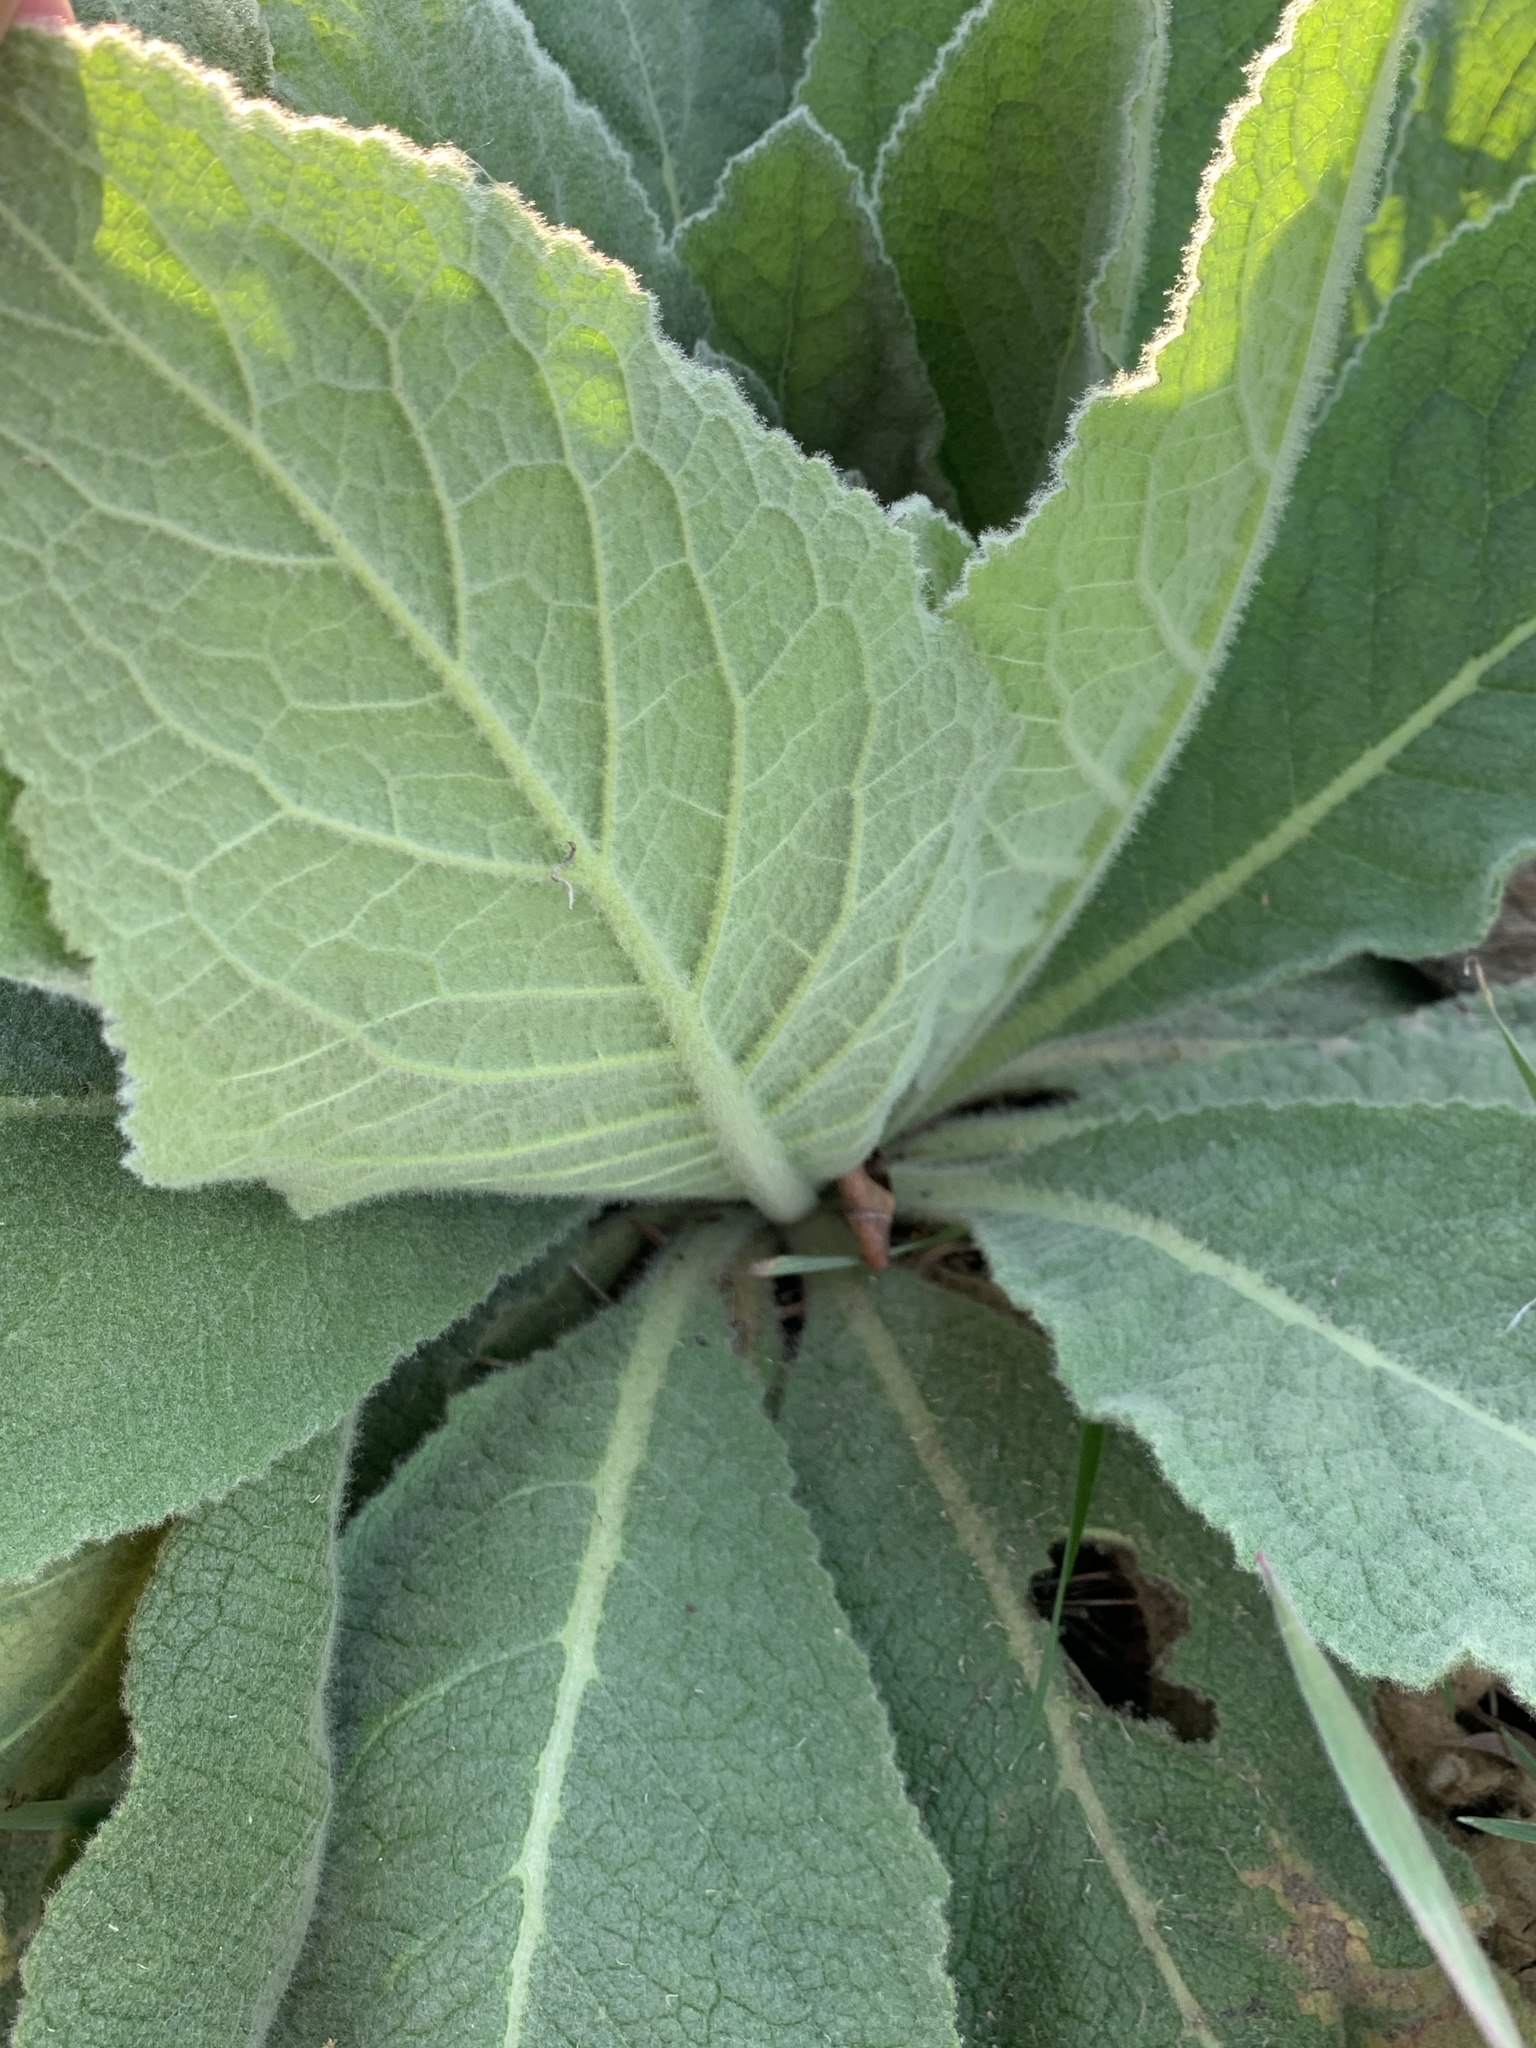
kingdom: Plantae
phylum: Tracheophyta
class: Magnoliopsida
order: Lamiales
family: Scrophulariaceae
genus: Verbascum
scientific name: Verbascum thapsus
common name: Common mullein
